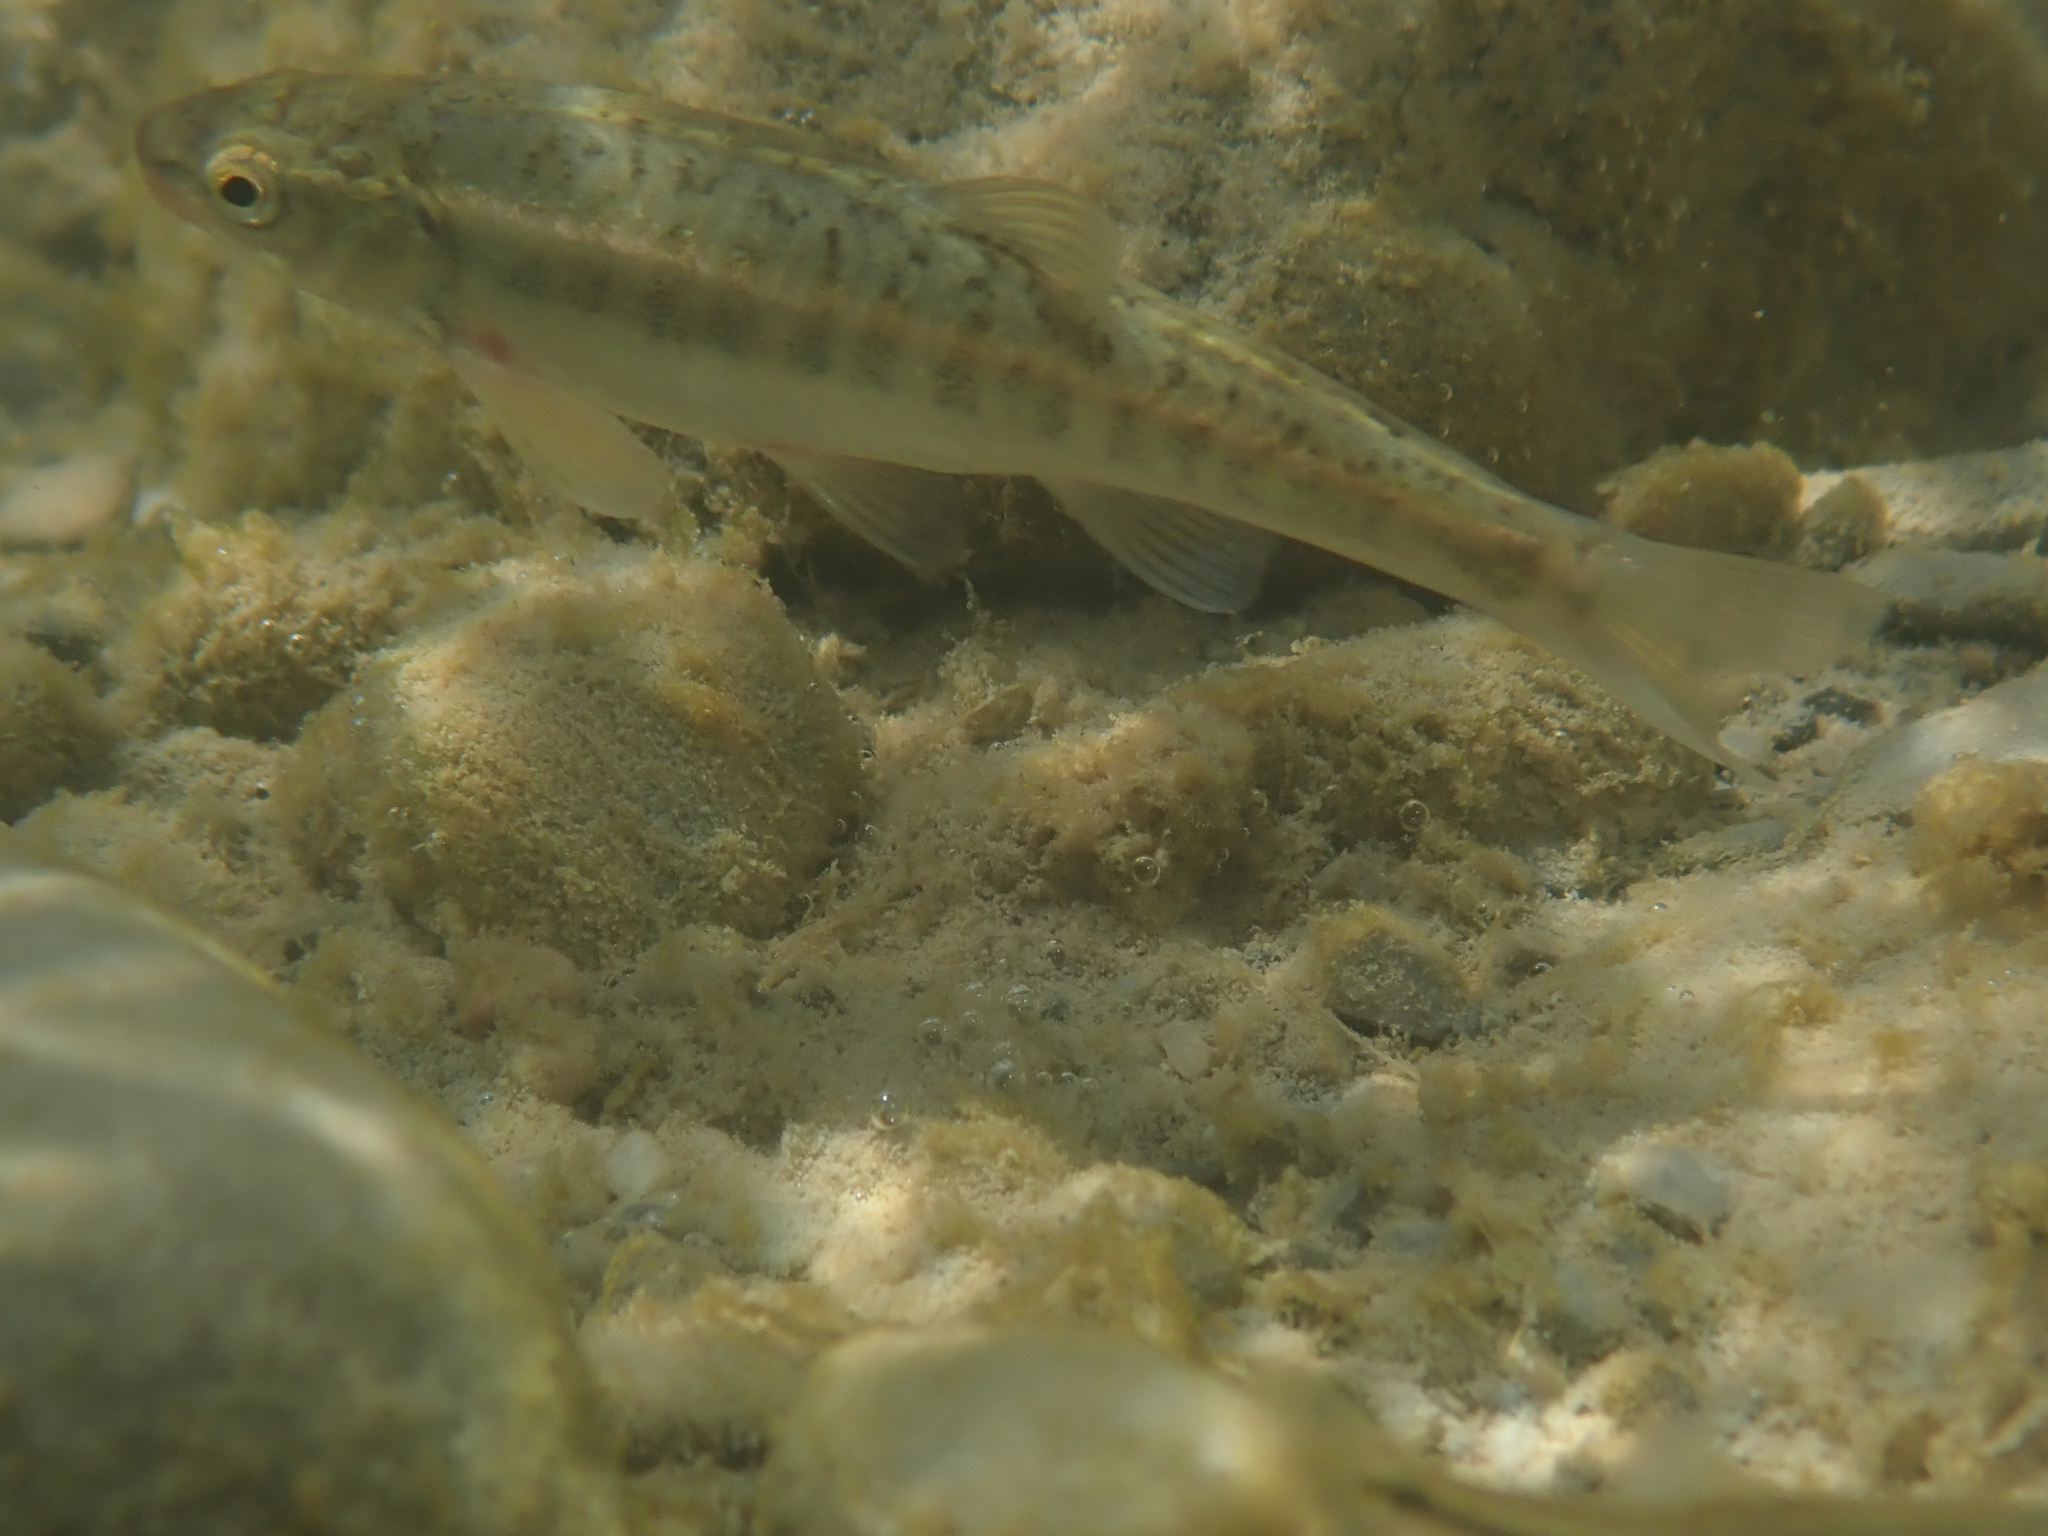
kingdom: Animalia
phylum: Chordata
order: Cypriniformes
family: Cyprinidae
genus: Phoxinus
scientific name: Phoxinus septimaniae
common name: Languedoc minnow
